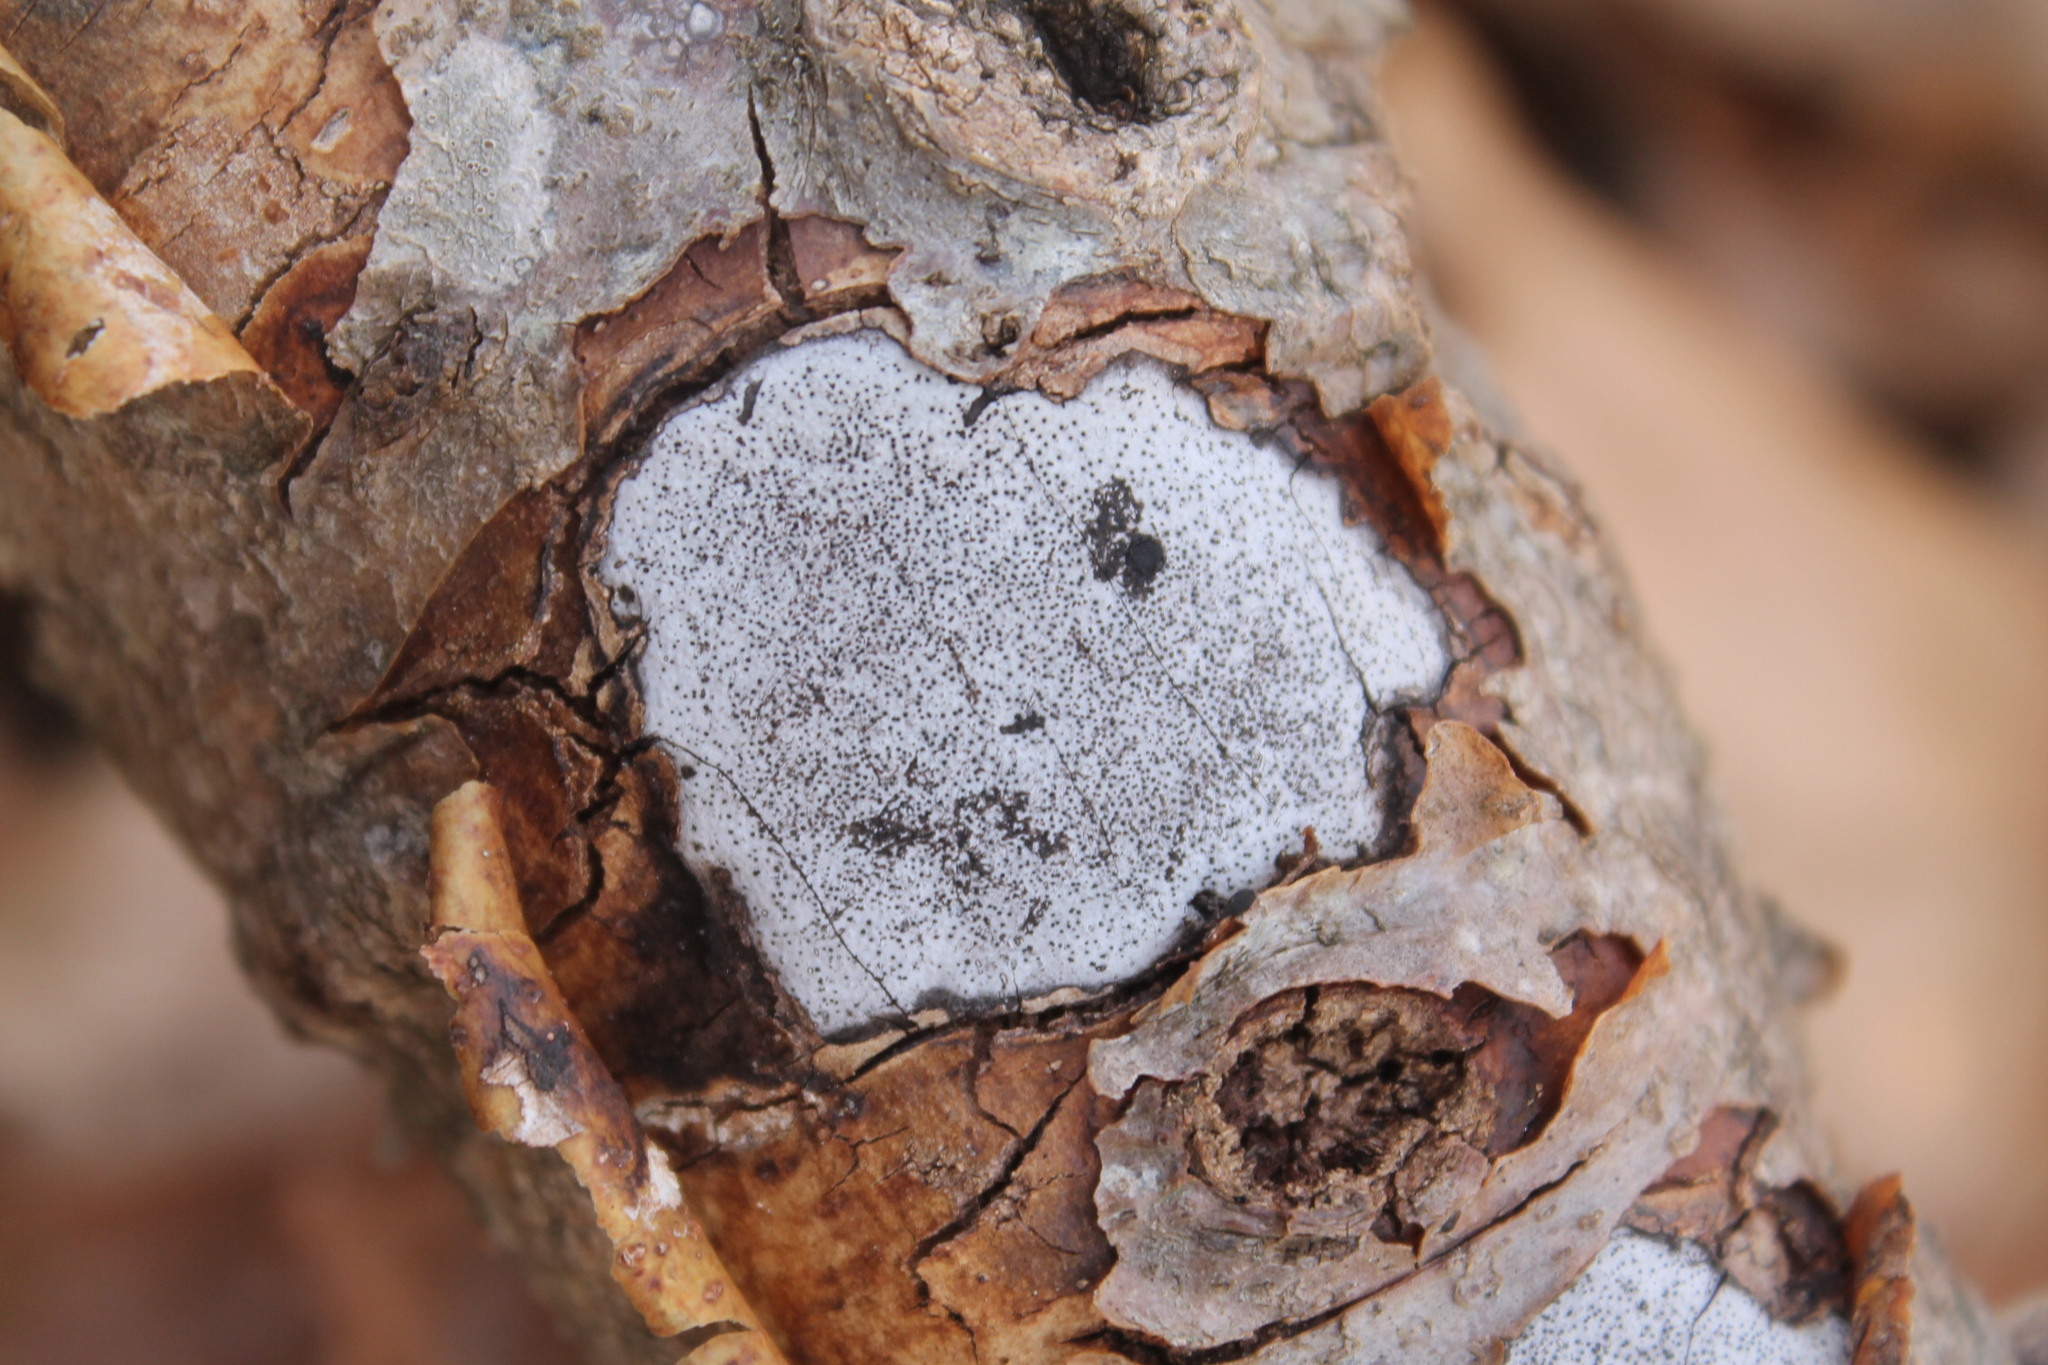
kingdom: Fungi
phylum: Ascomycota
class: Sordariomycetes
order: Xylariales
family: Graphostromataceae
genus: Biscogniauxia
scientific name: Biscogniauxia atropunctata
